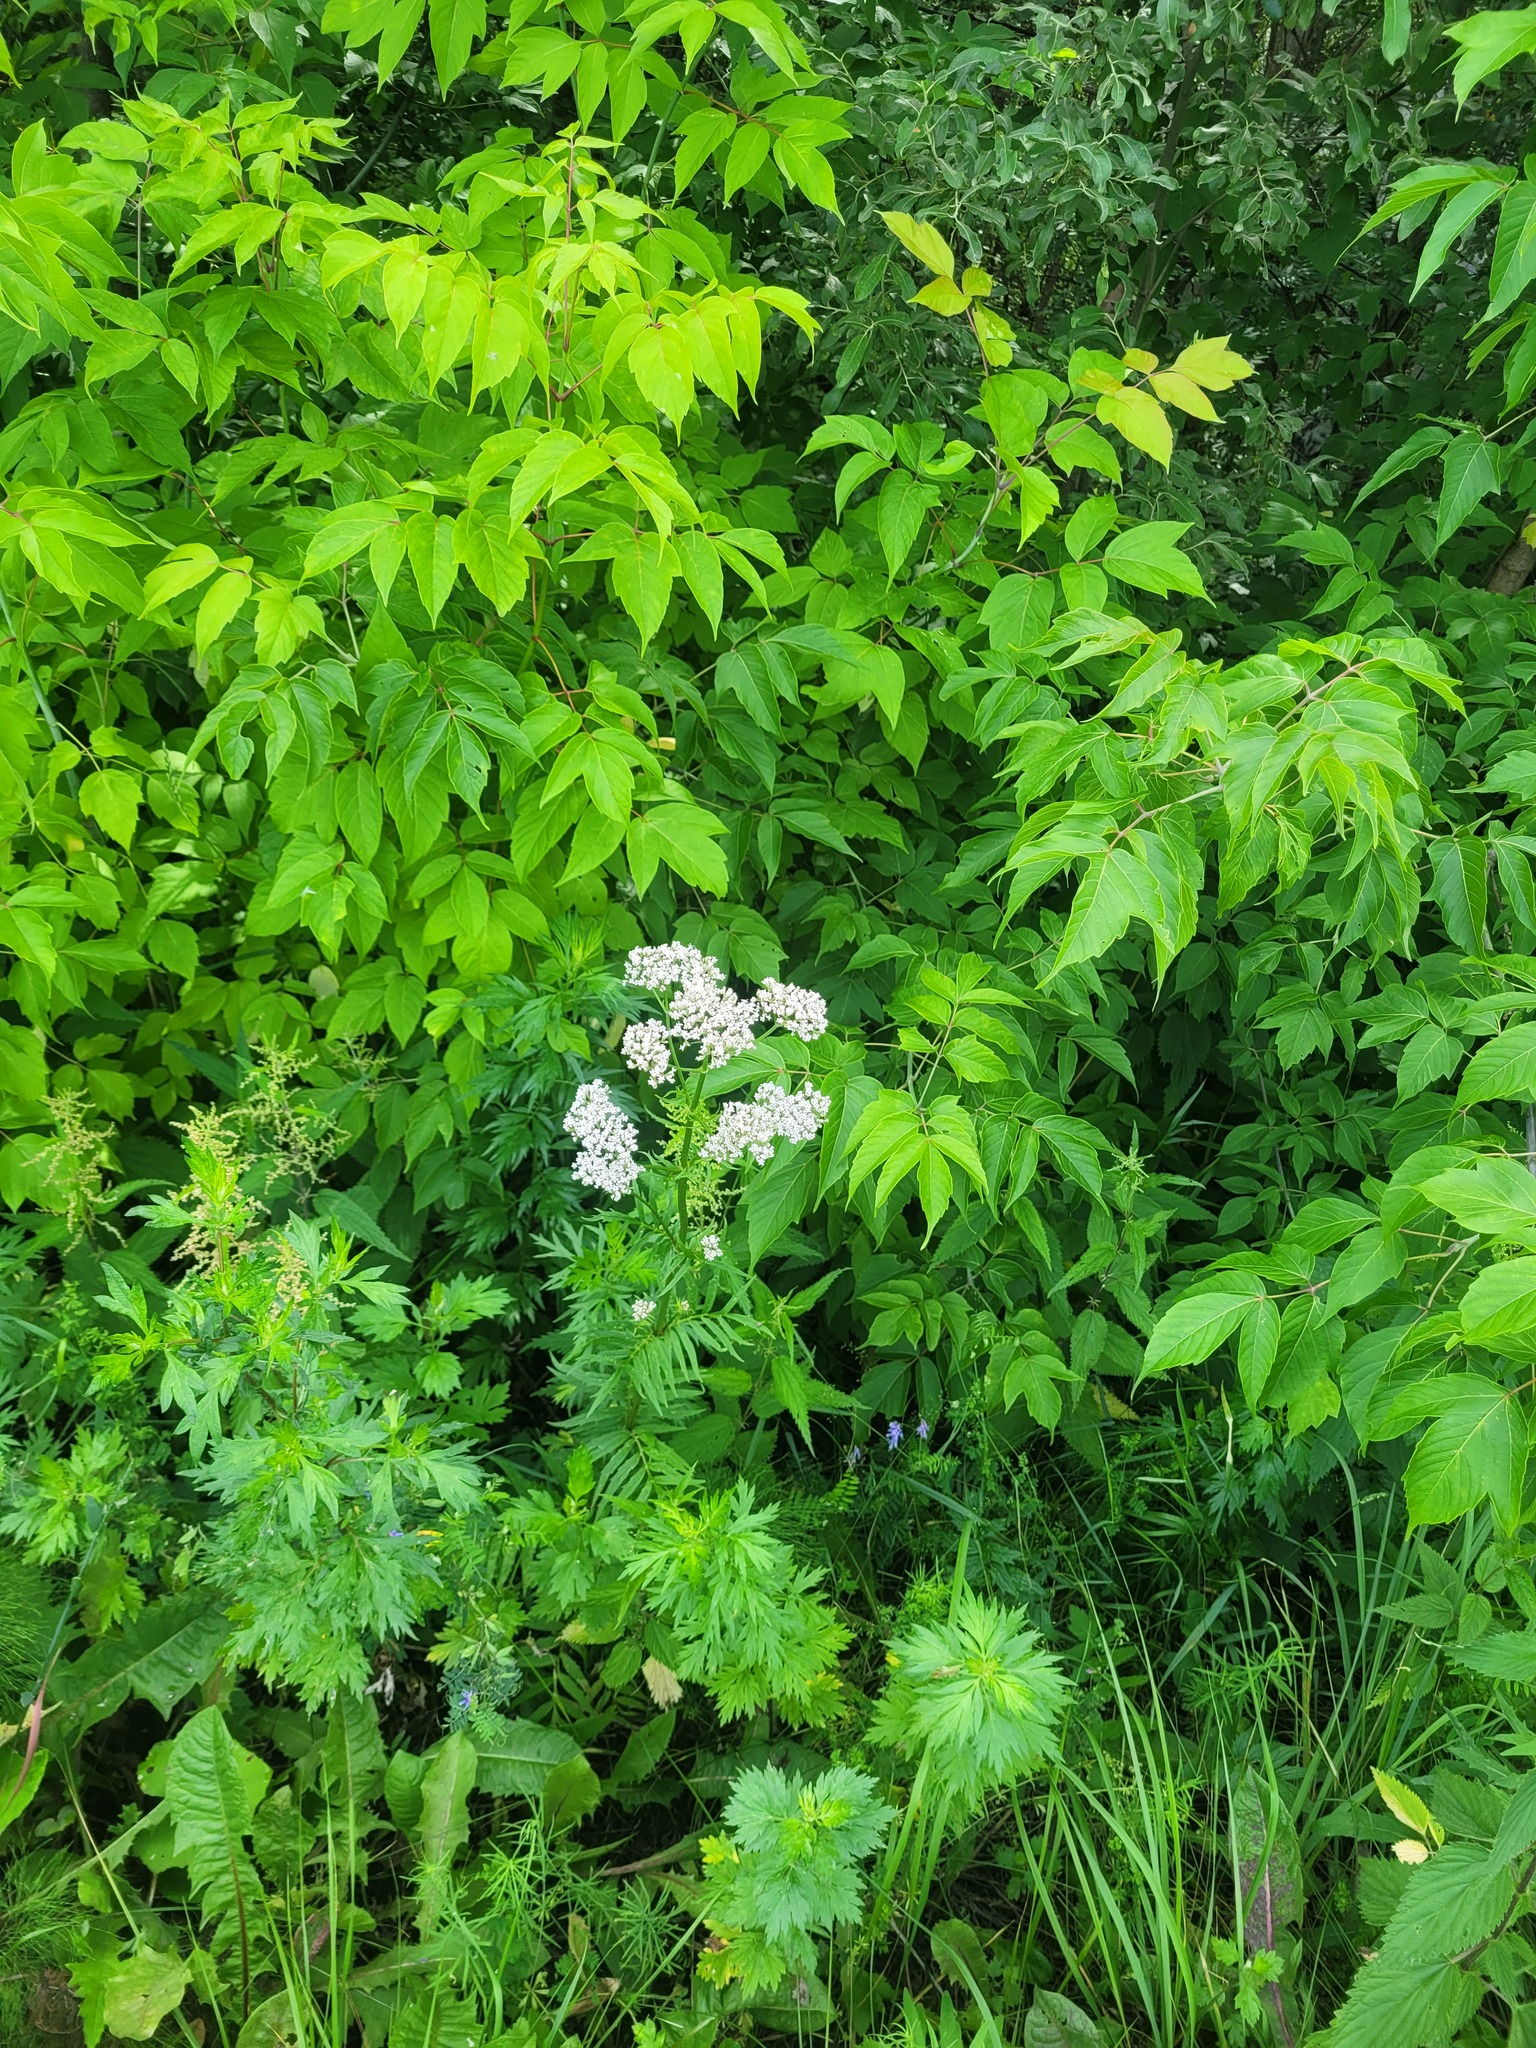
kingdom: Plantae
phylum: Tracheophyta
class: Magnoliopsida
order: Dipsacales
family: Caprifoliaceae
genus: Valeriana
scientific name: Valeriana officinalis
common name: Common valerian
